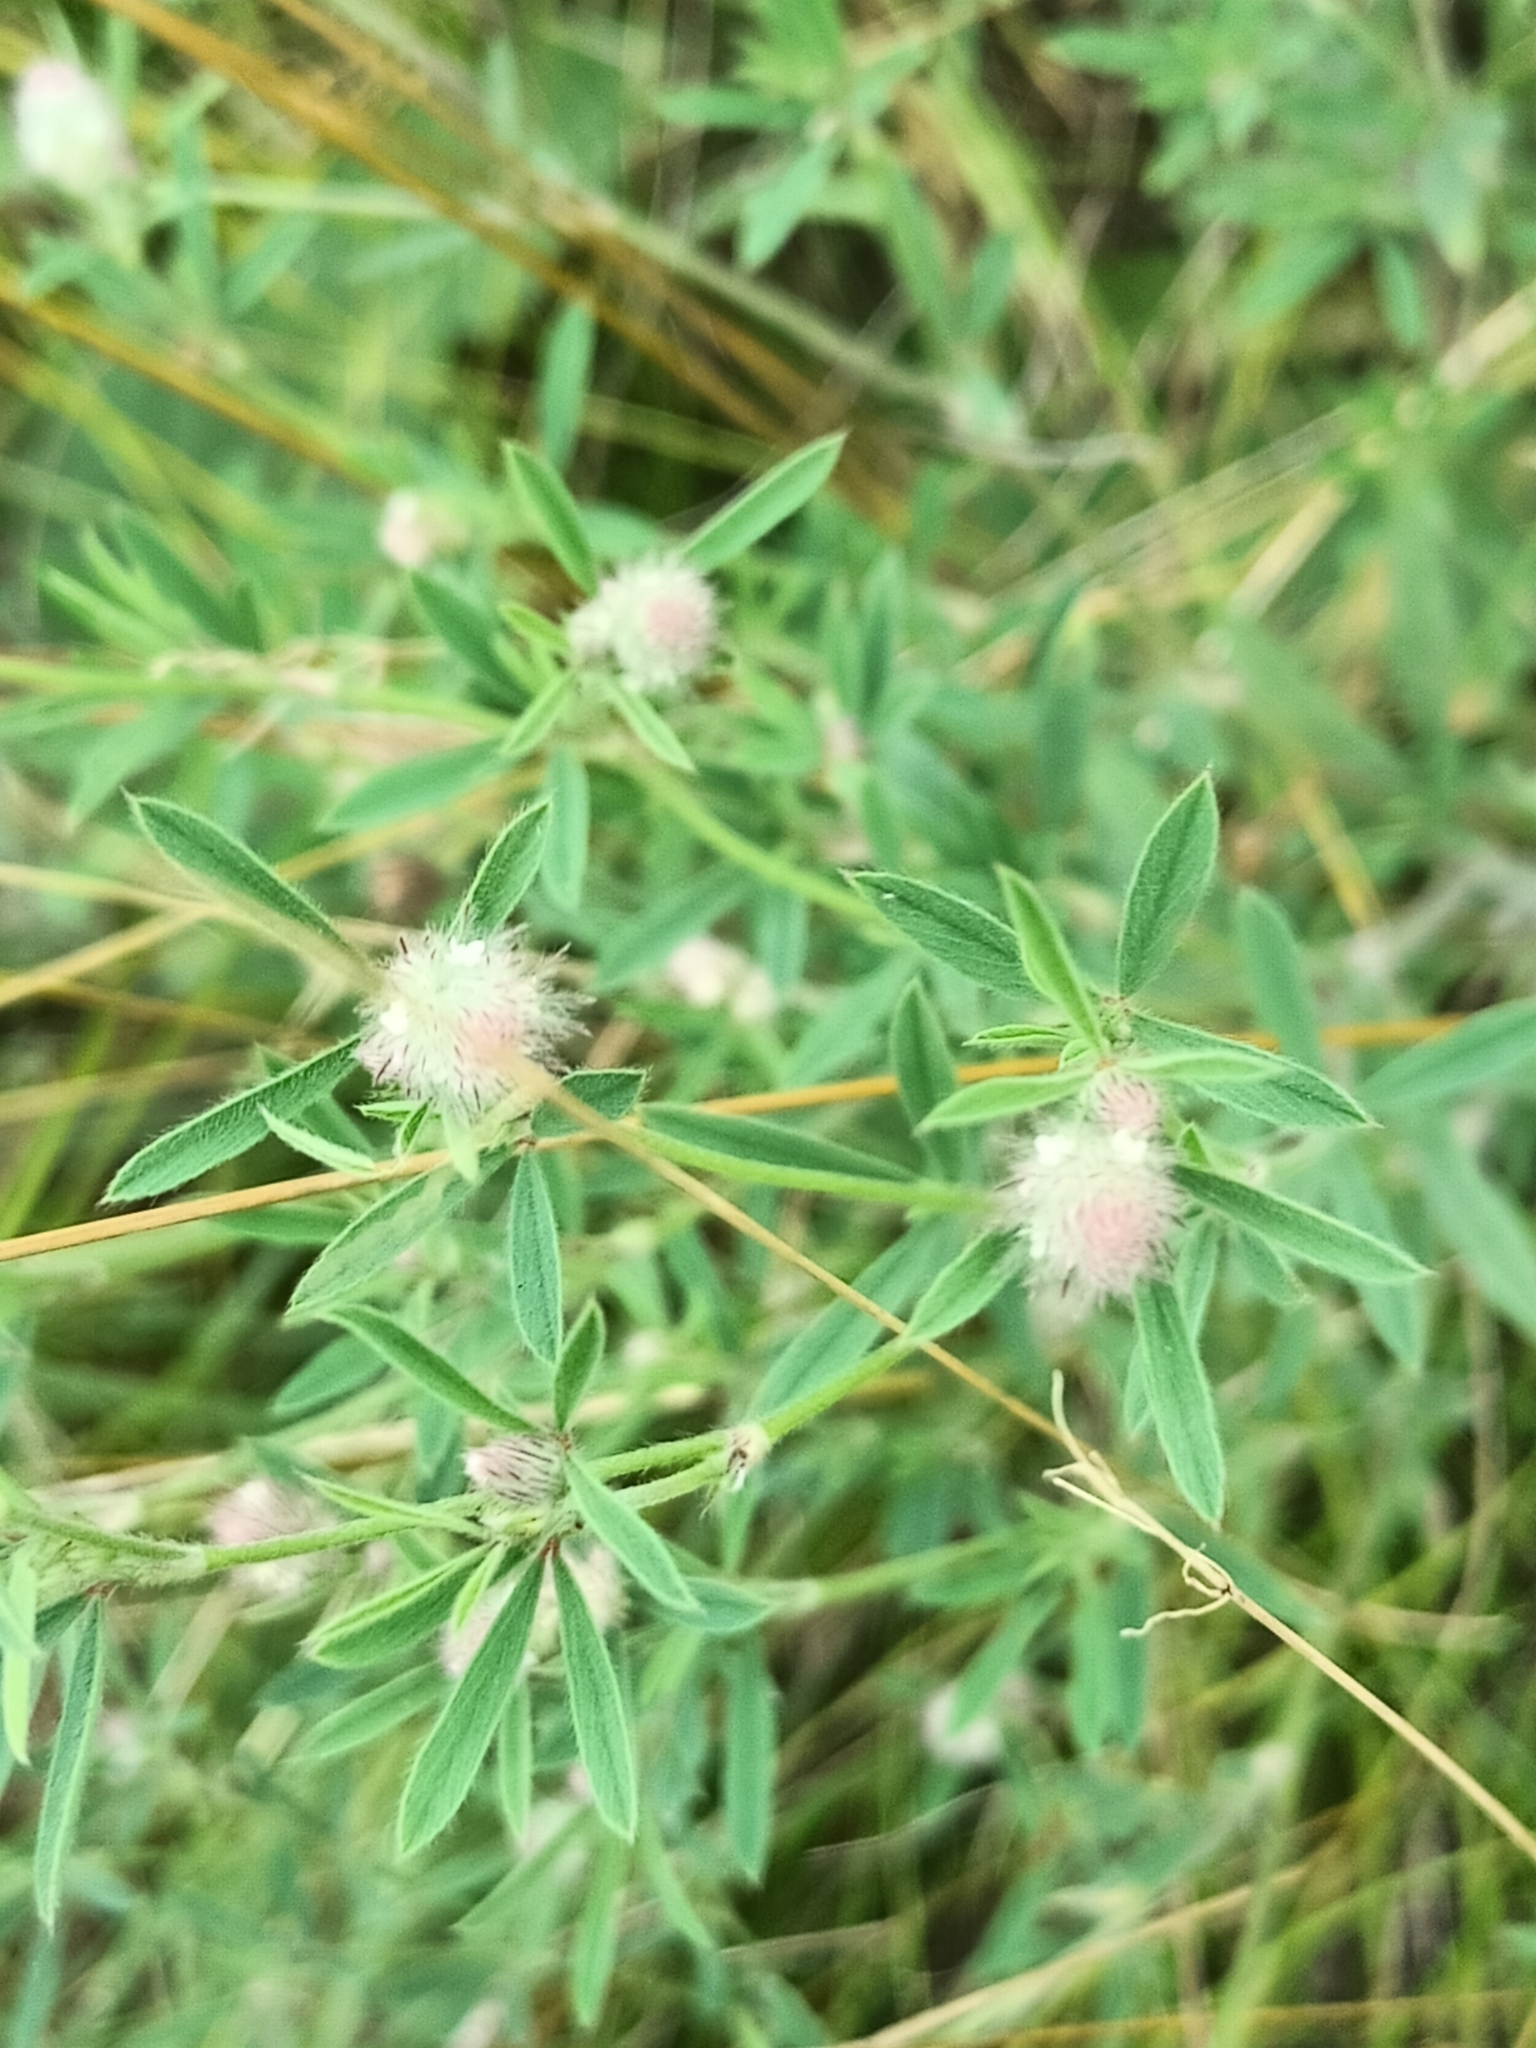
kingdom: Plantae
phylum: Tracheophyta
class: Magnoliopsida
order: Fabales
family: Fabaceae
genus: Trifolium
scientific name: Trifolium arvense
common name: Hare's-foot clover
